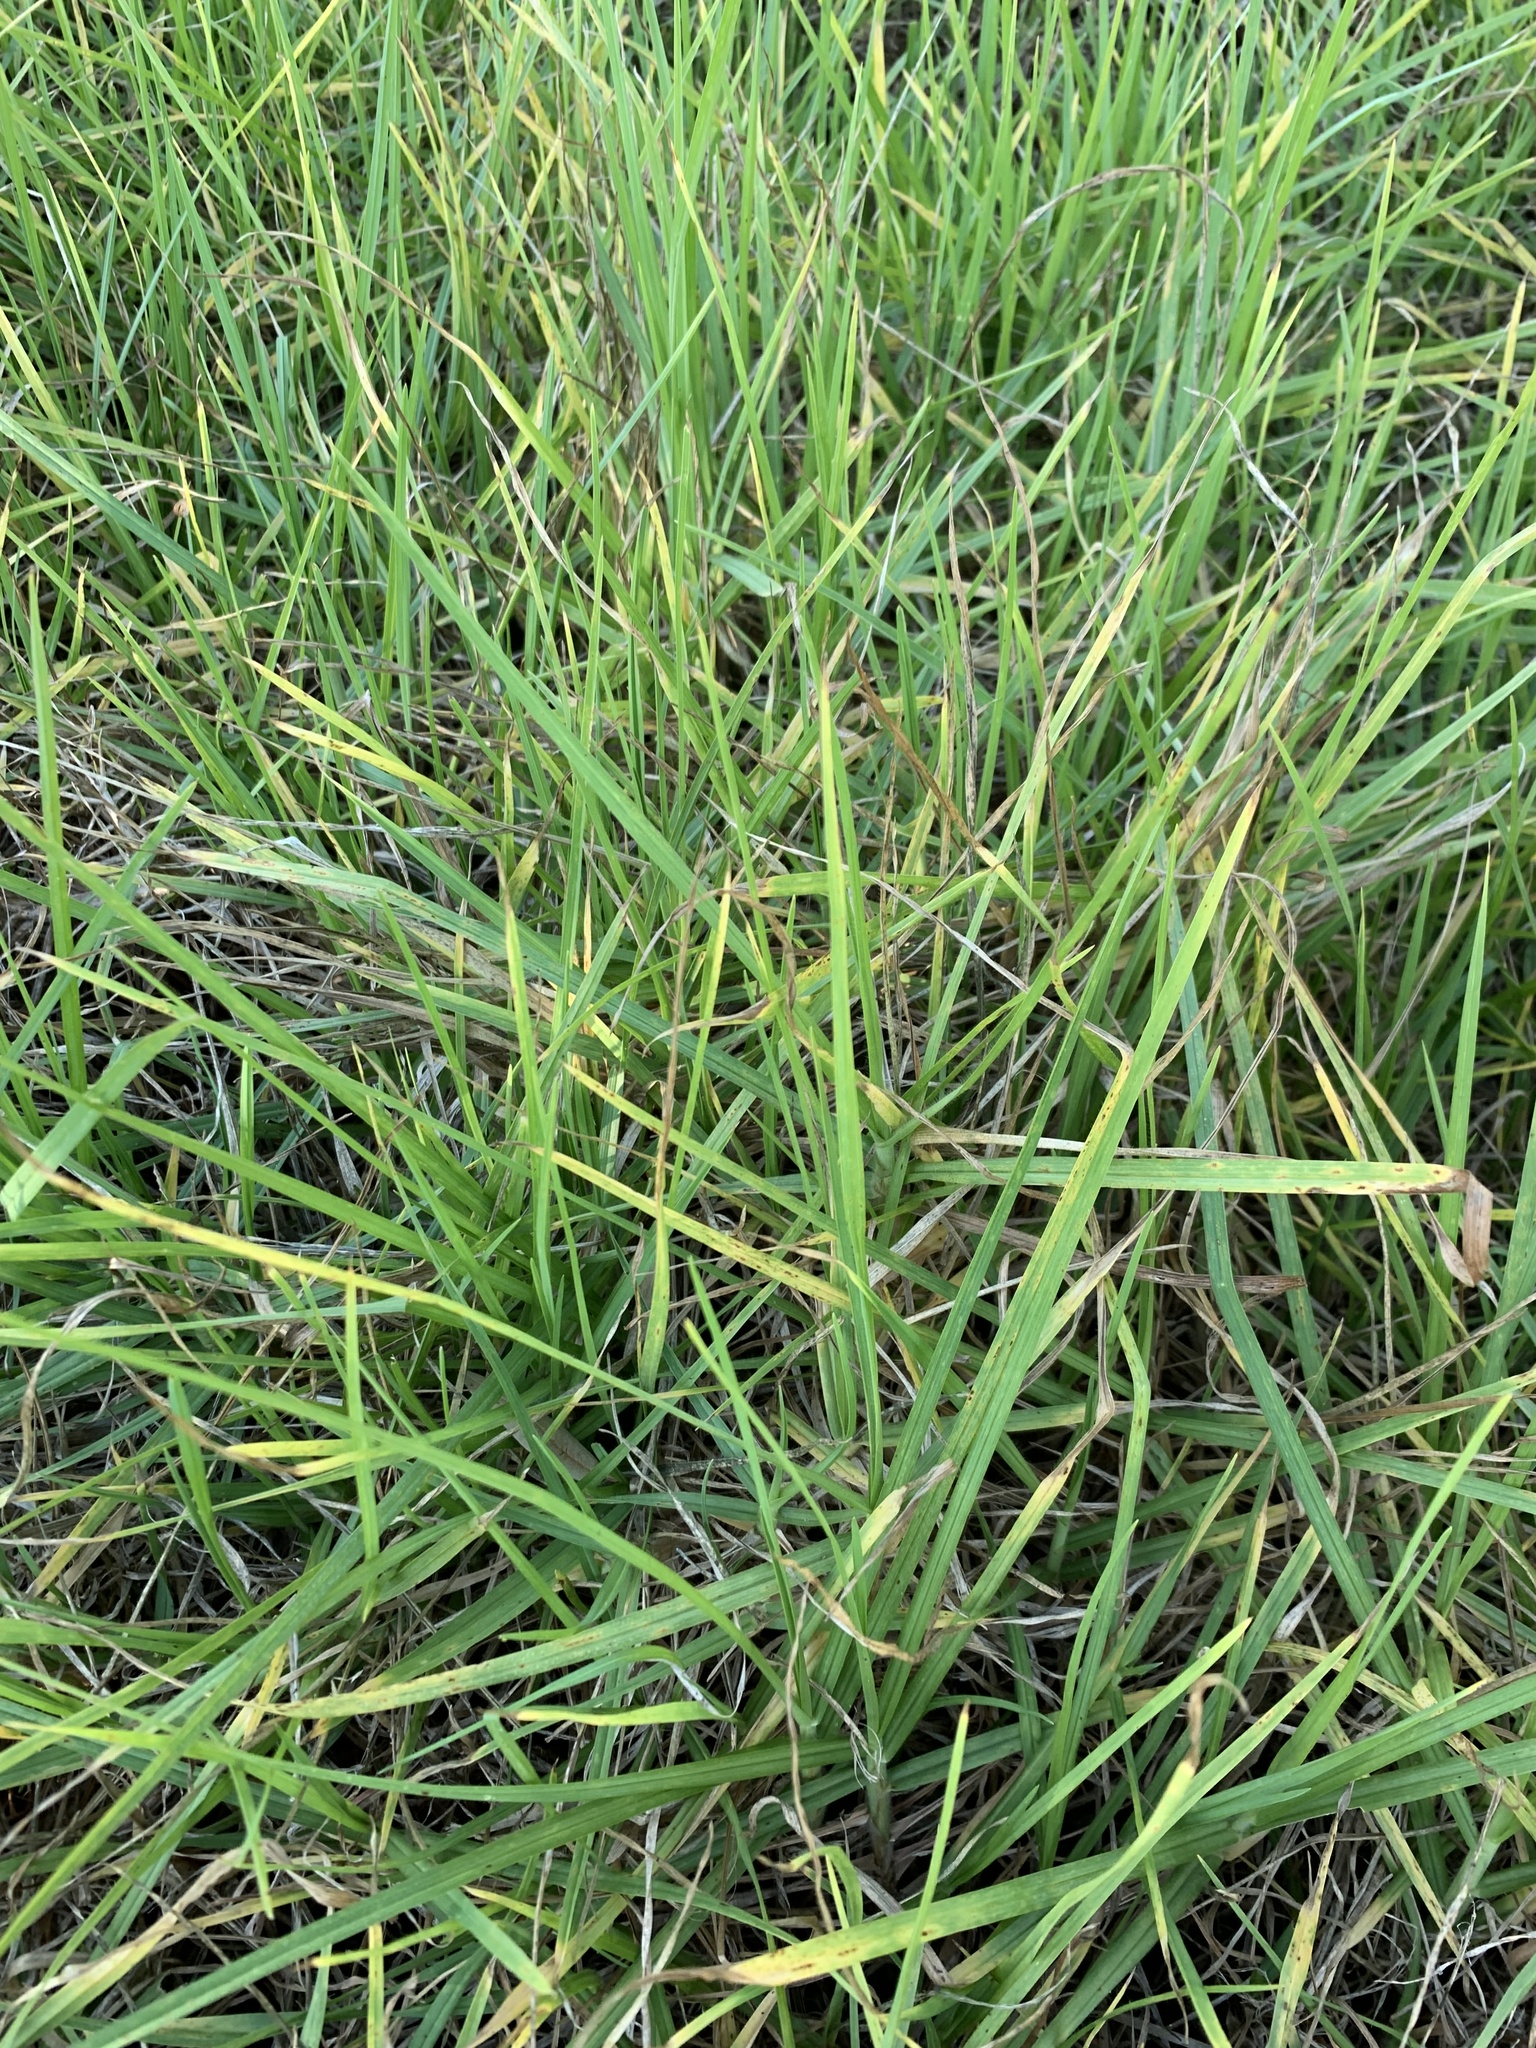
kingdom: Plantae
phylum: Tracheophyta
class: Liliopsida
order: Poales
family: Poaceae
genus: Cenchrus
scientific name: Cenchrus clandestinus
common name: Kikuyugrass
